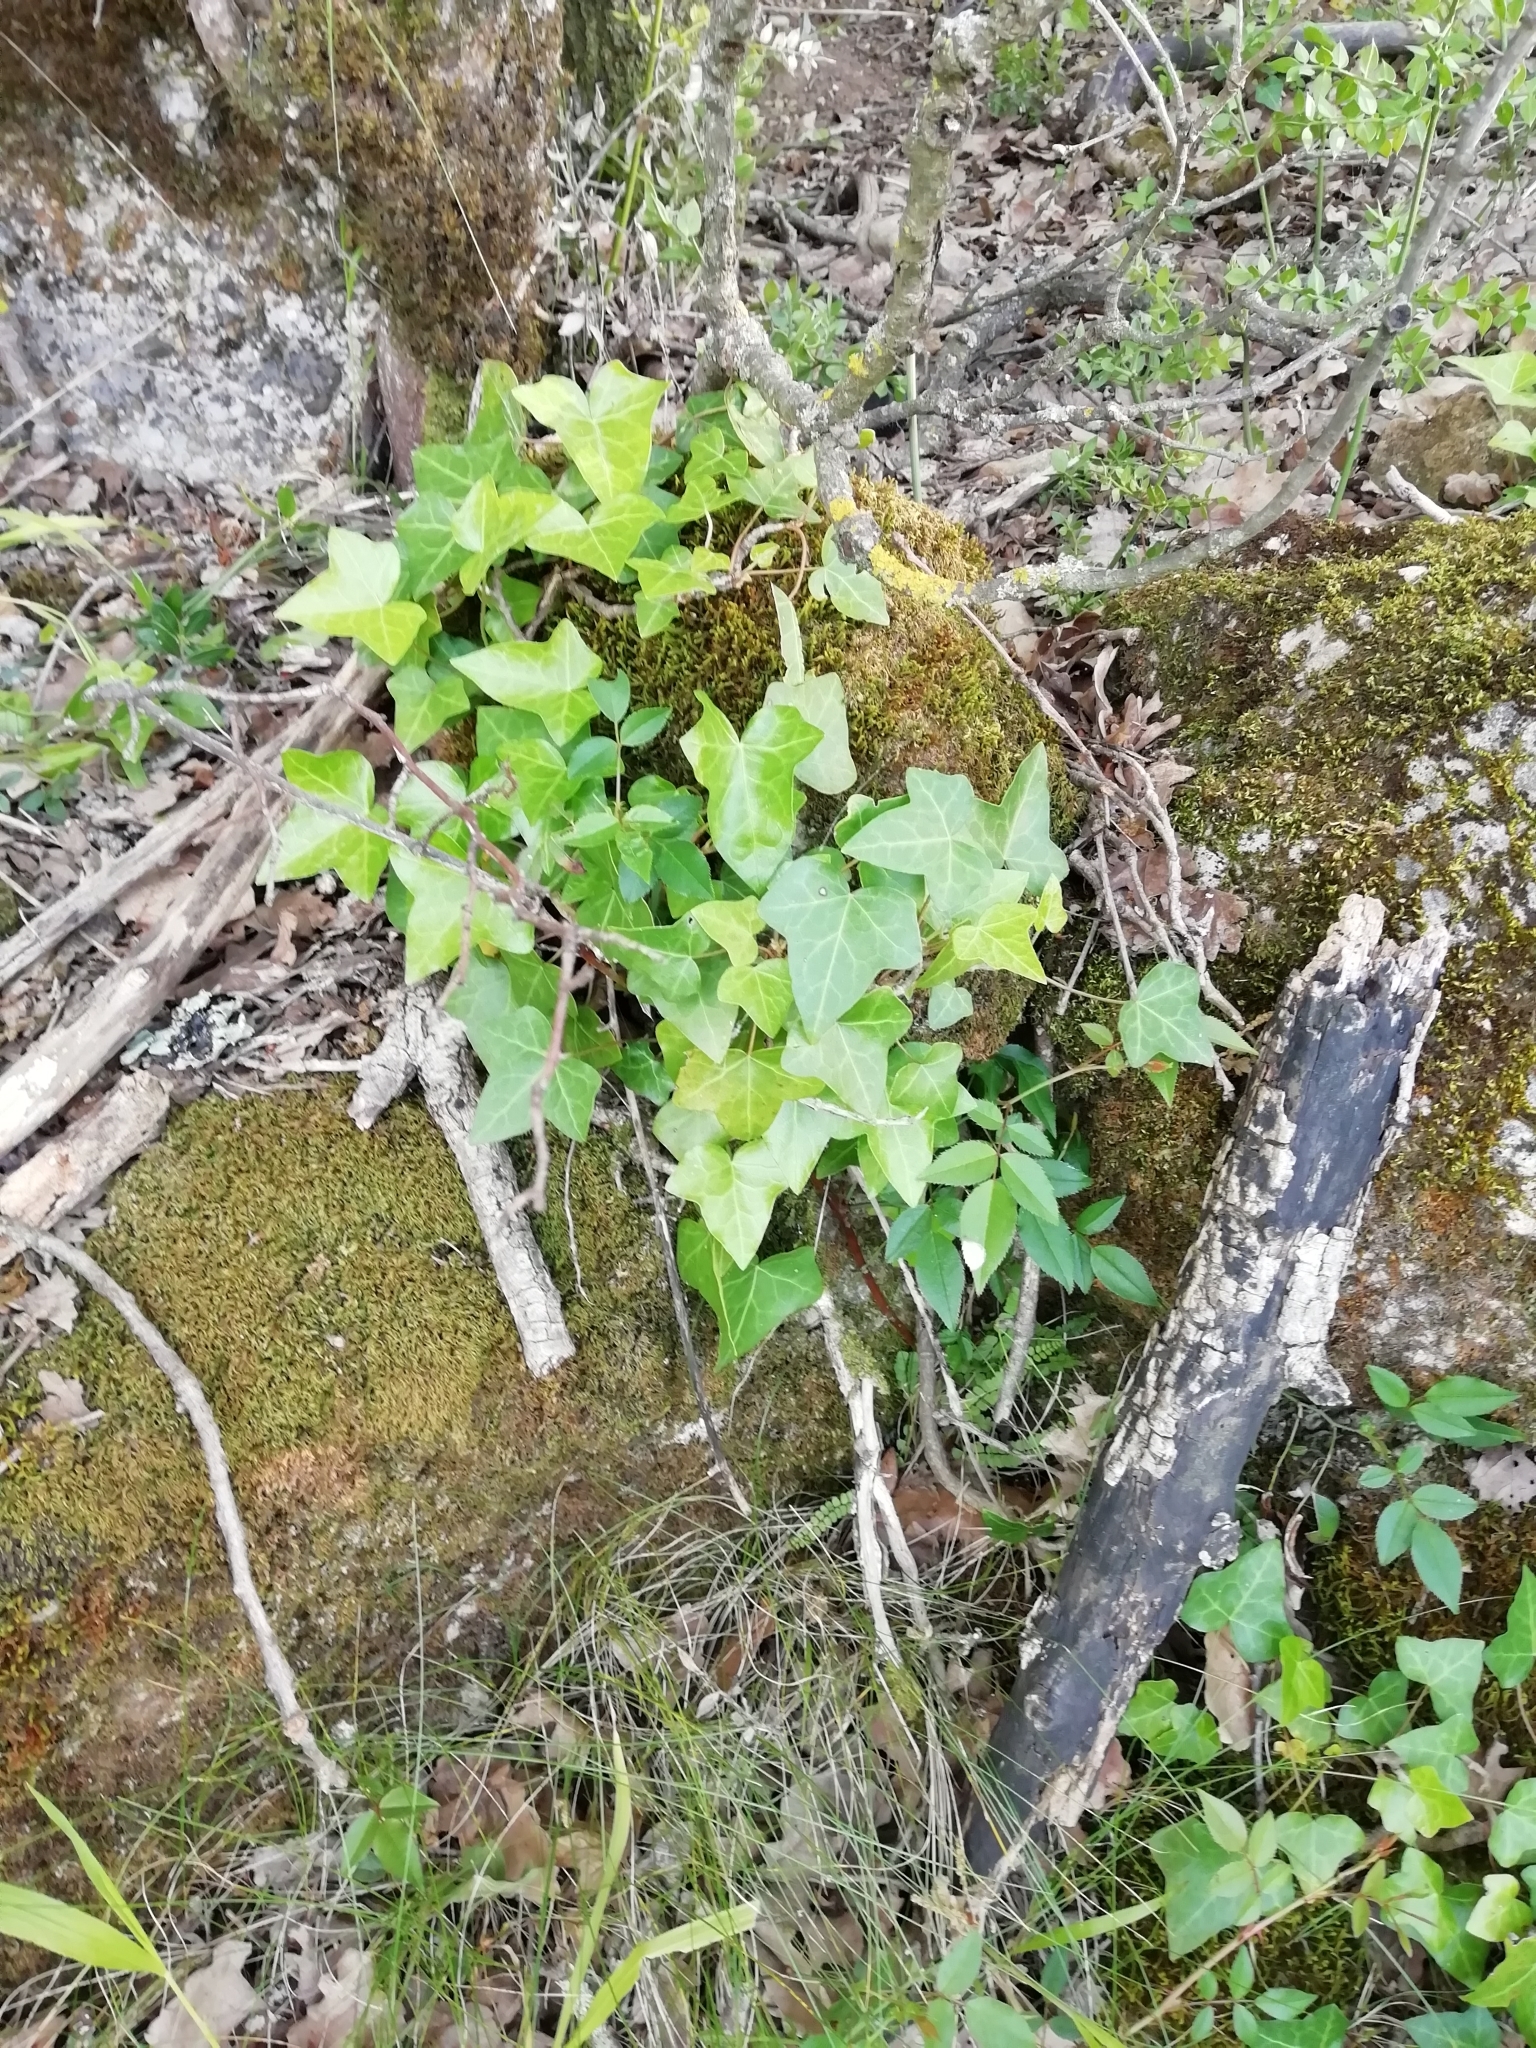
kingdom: Plantae
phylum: Tracheophyta
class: Magnoliopsida
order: Apiales
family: Araliaceae
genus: Hedera
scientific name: Hedera helix
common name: Ivy
